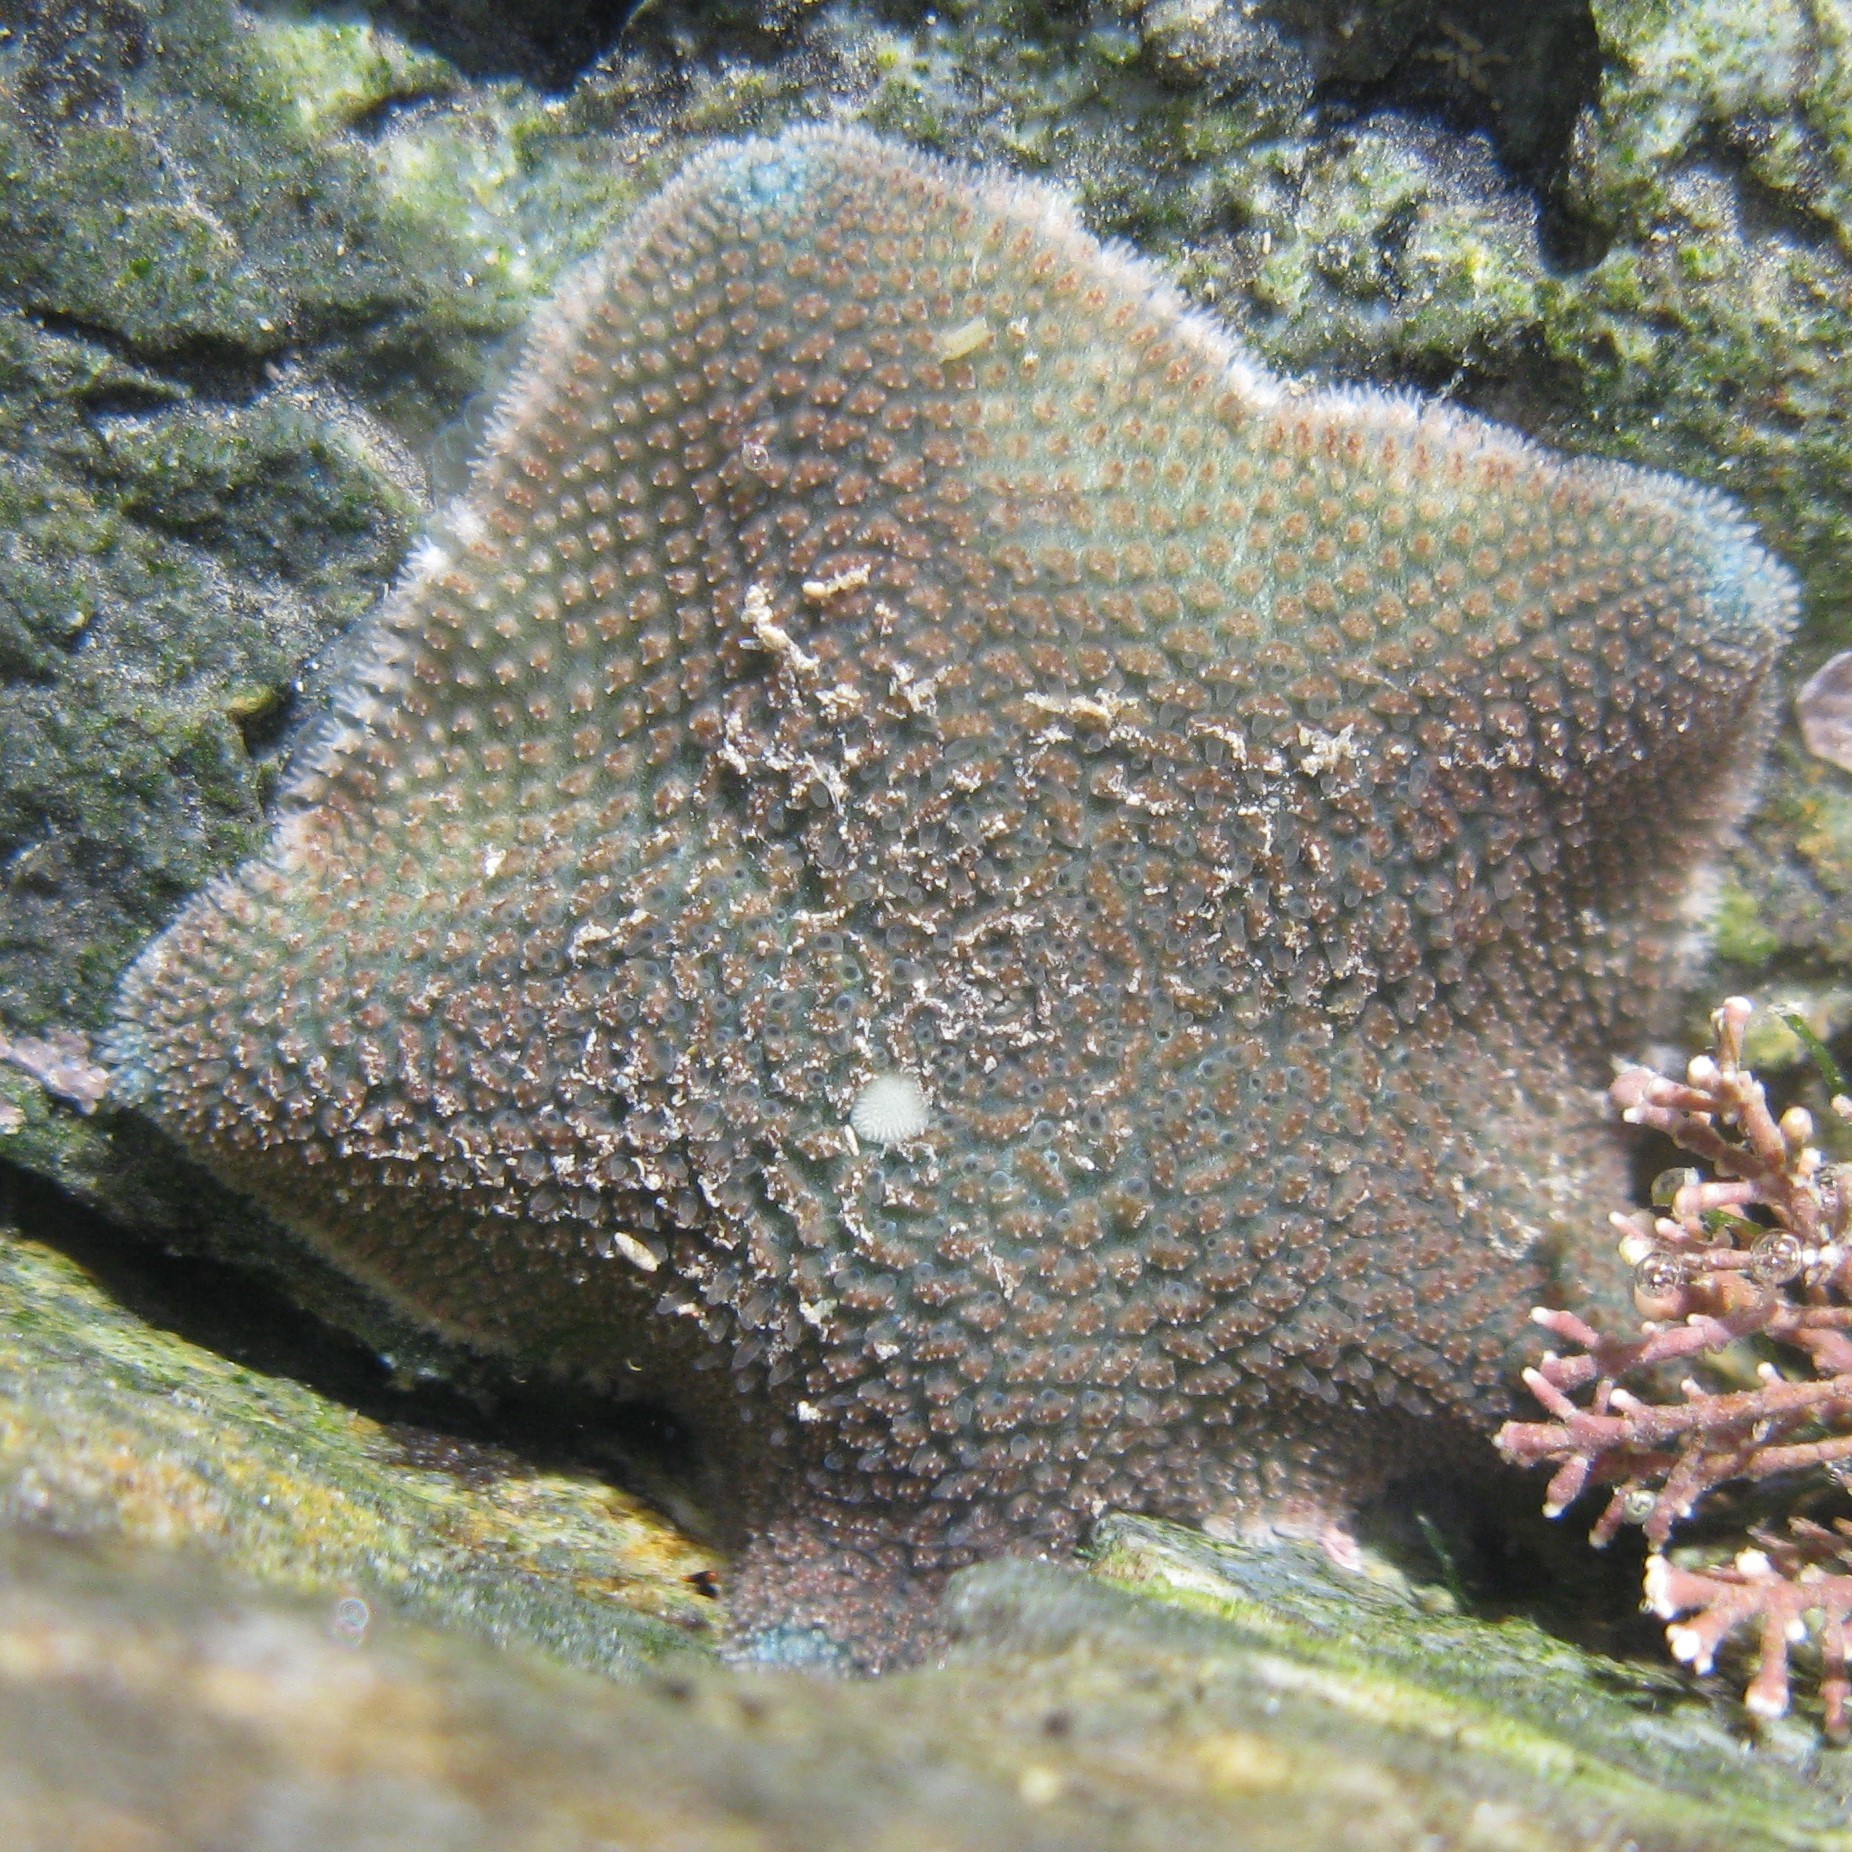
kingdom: Animalia
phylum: Echinodermata
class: Asteroidea
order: Valvatida
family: Asterinidae
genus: Patiriella
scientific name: Patiriella regularis
